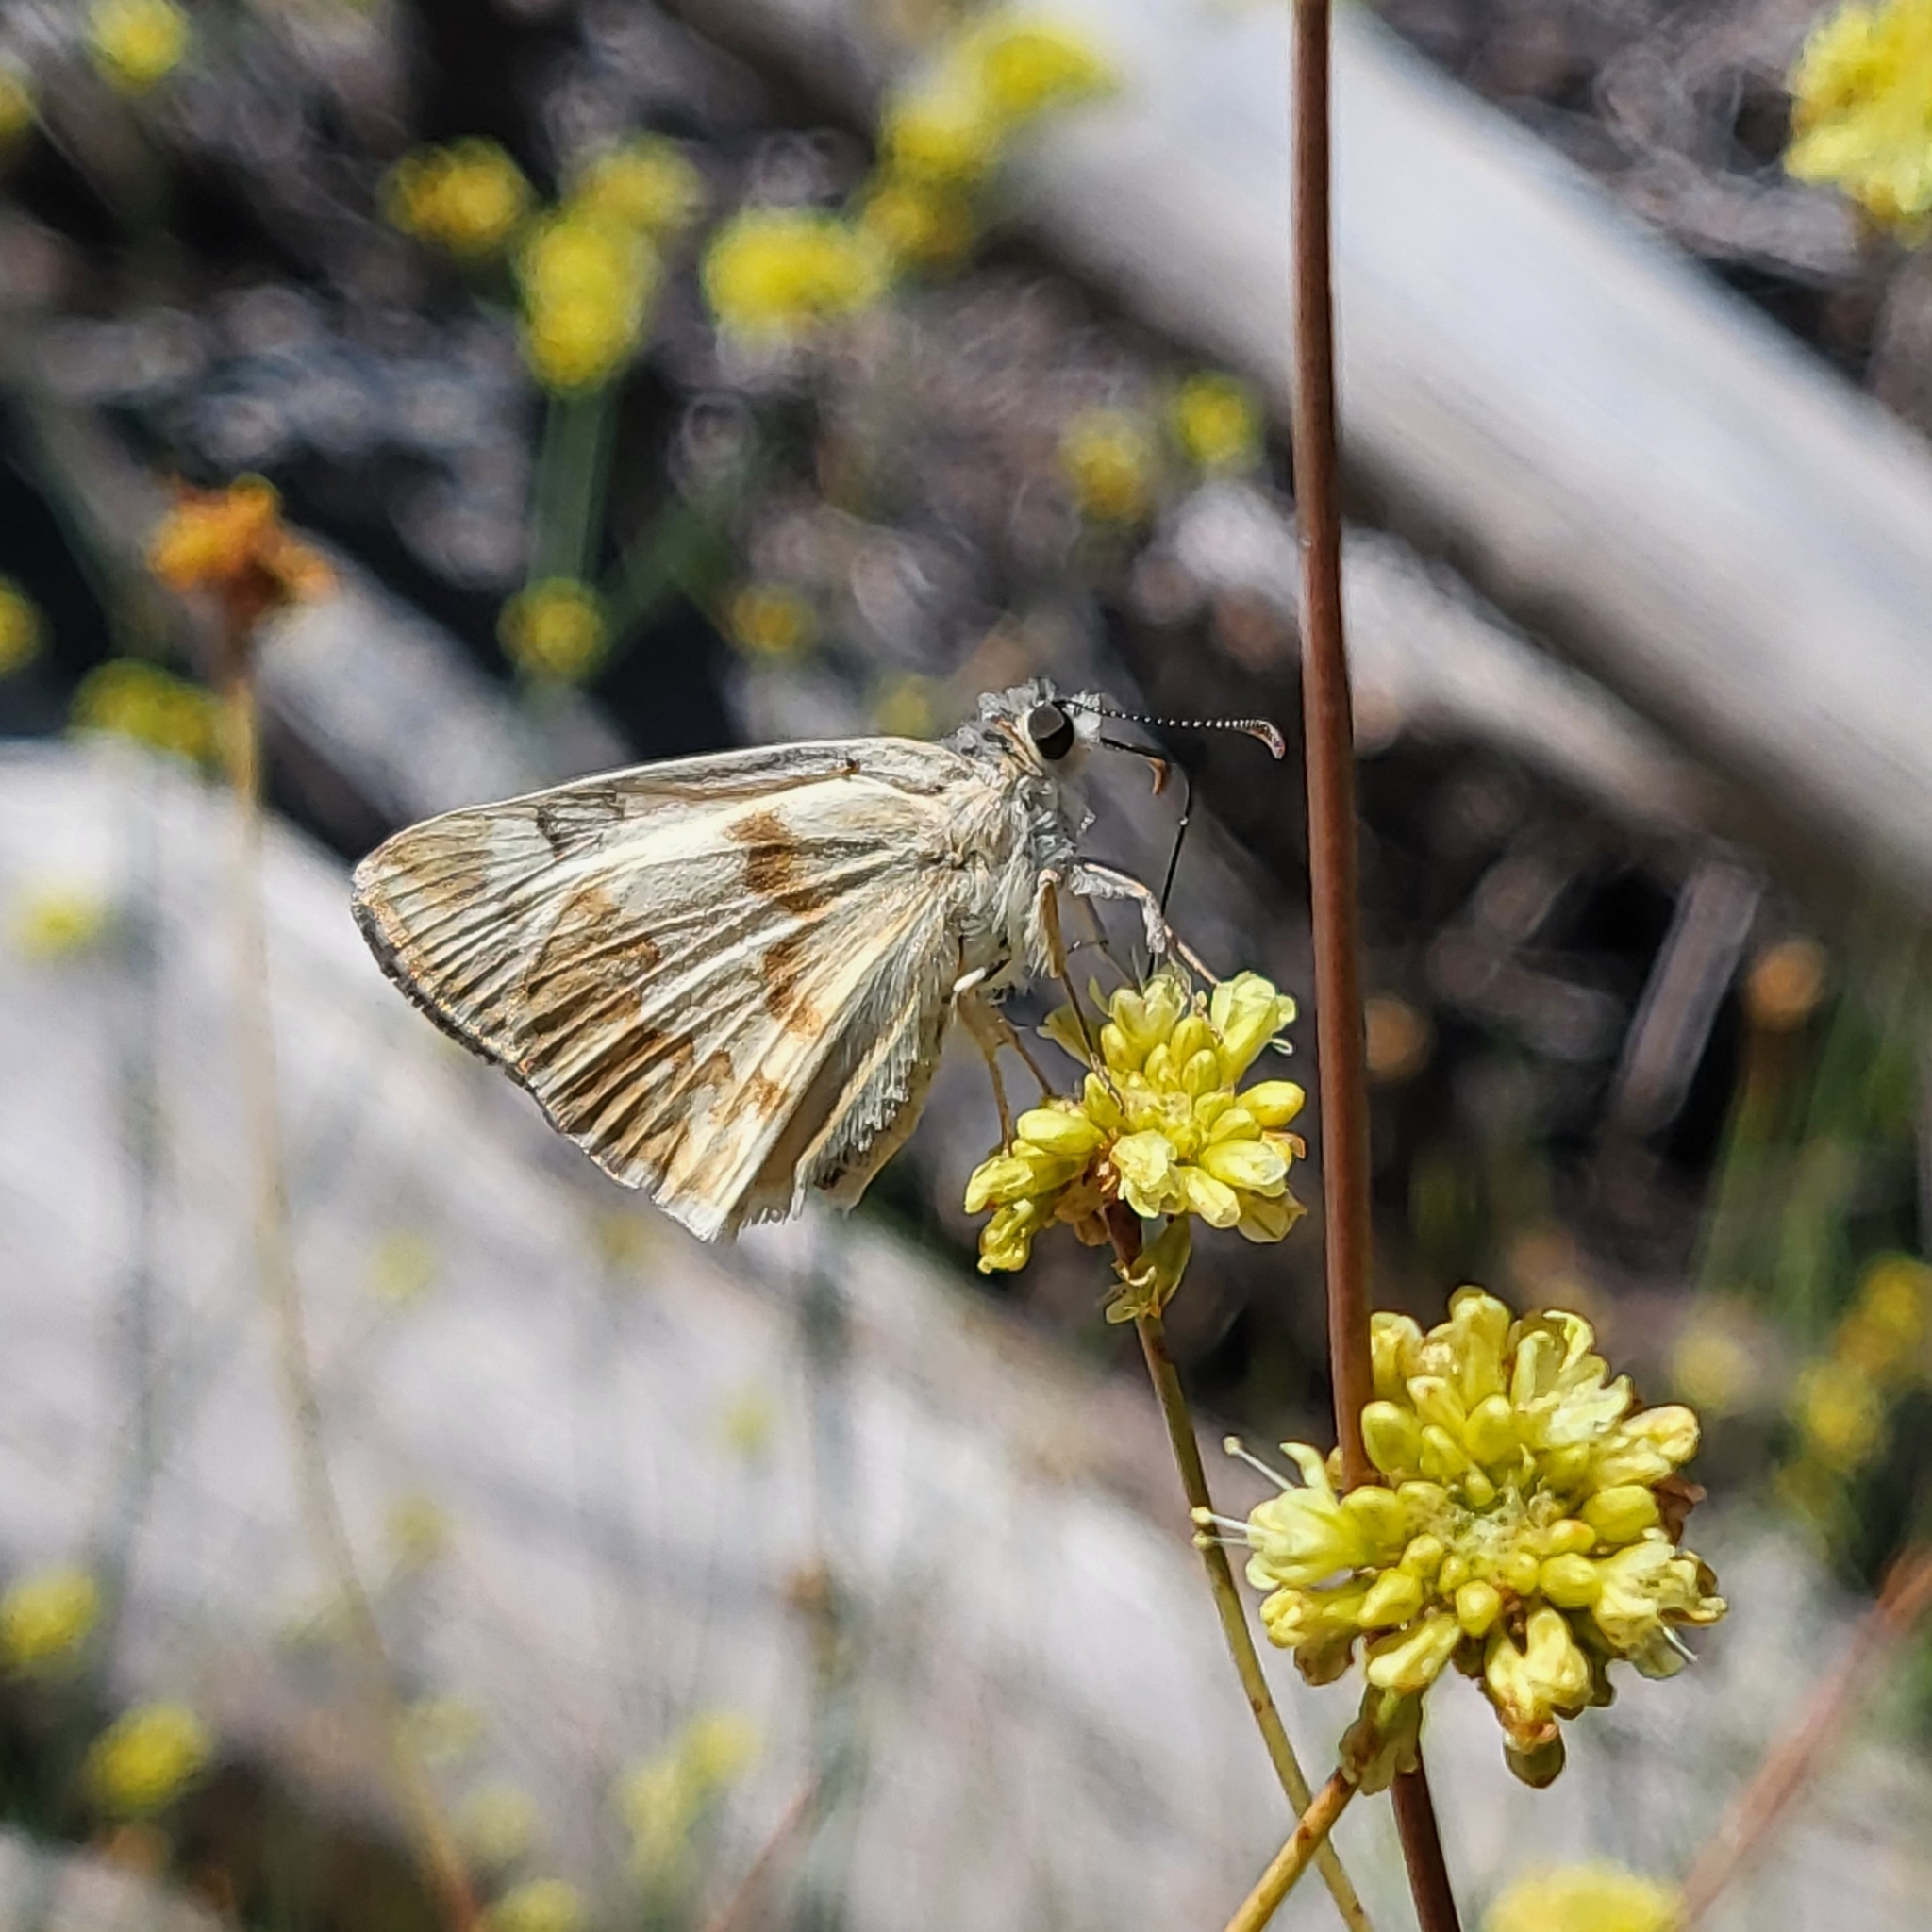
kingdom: Animalia
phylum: Arthropoda
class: Insecta
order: Lepidoptera
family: Hesperiidae
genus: Heliopetes
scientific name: Heliopetes ericetorum
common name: Northern white-skipper
